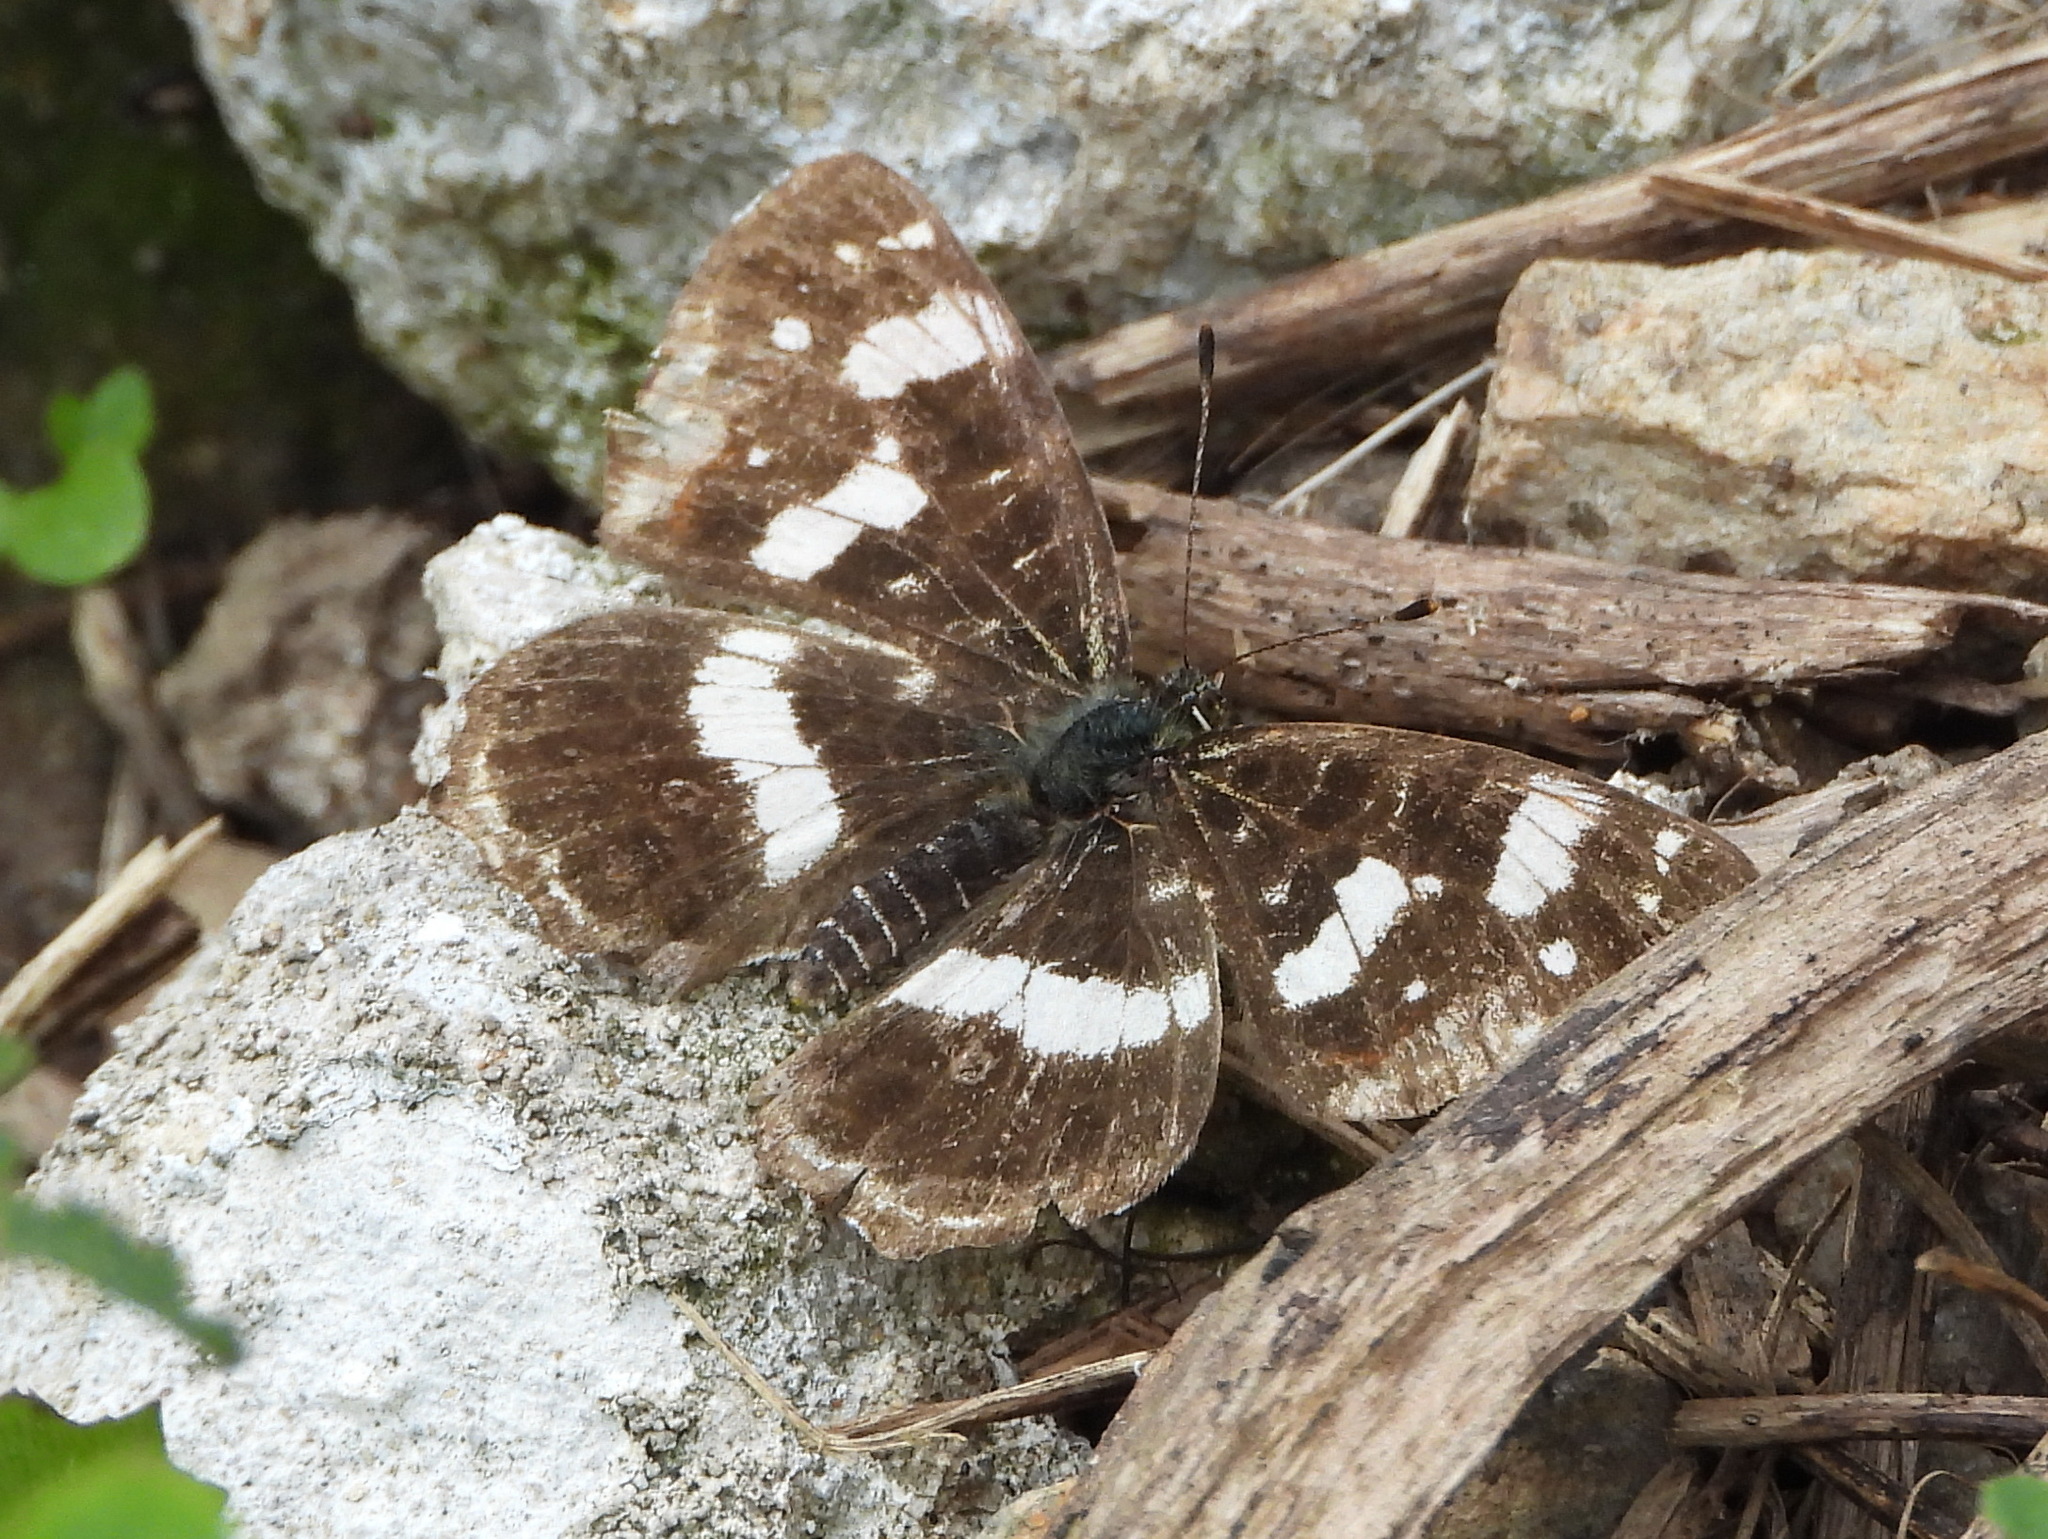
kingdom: Animalia
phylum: Arthropoda
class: Insecta
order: Lepidoptera
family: Nymphalidae
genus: Araschnia
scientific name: Araschnia levana
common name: Map butterfly
